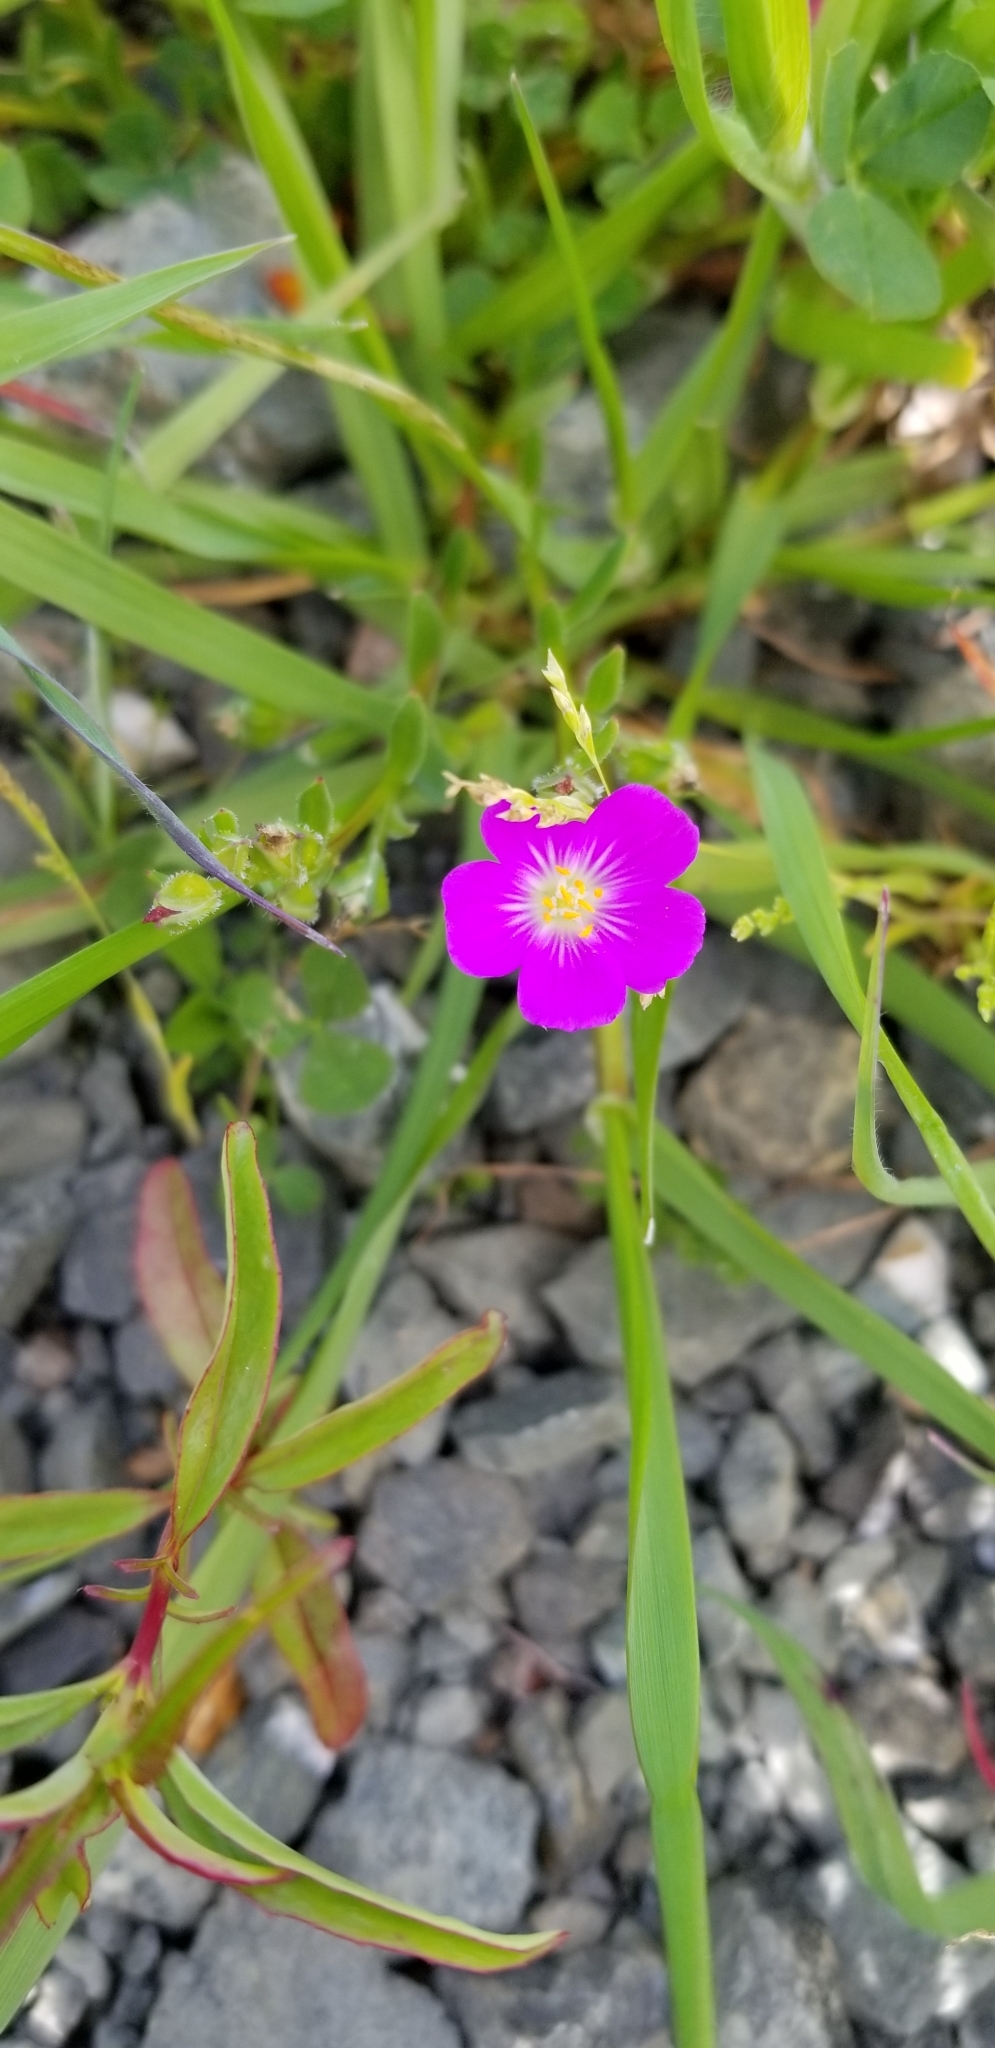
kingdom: Plantae
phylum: Tracheophyta
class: Magnoliopsida
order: Caryophyllales
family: Montiaceae
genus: Calandrinia
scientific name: Calandrinia menziesii
